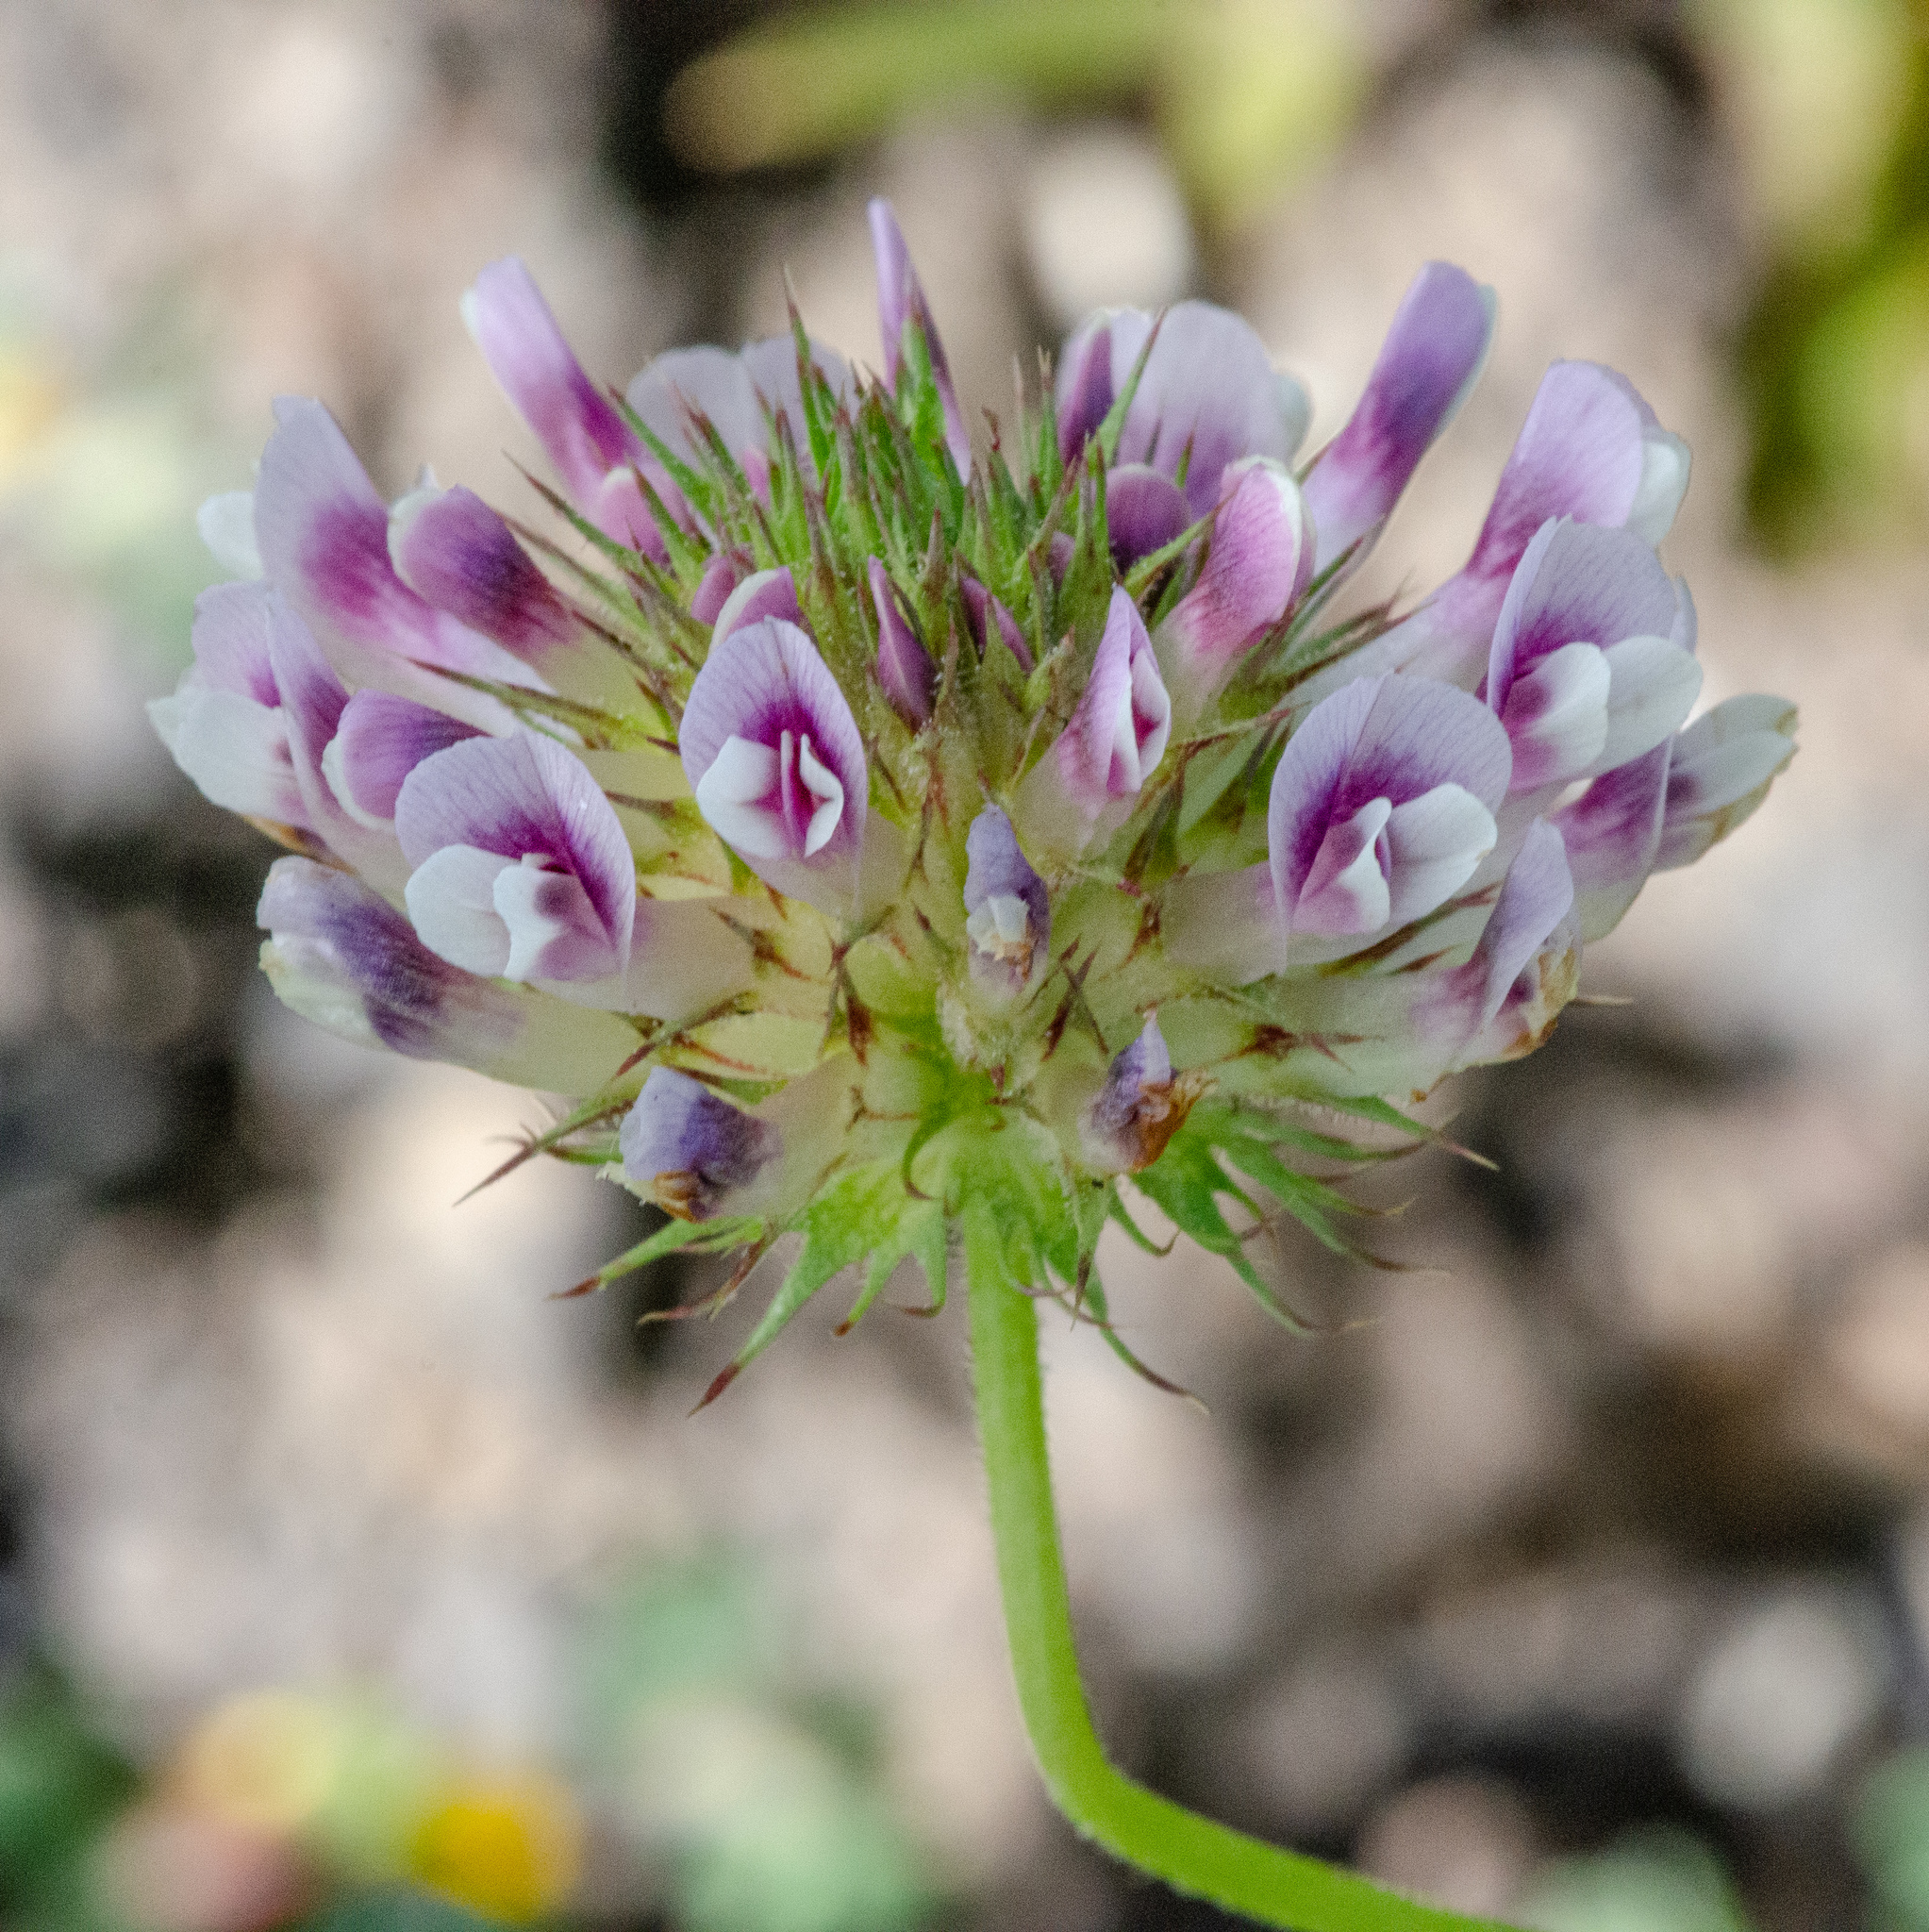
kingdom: Plantae
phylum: Tracheophyta
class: Magnoliopsida
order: Fabales
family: Fabaceae
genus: Trifolium
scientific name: Trifolium obtusiflorum
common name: Clammy clover
